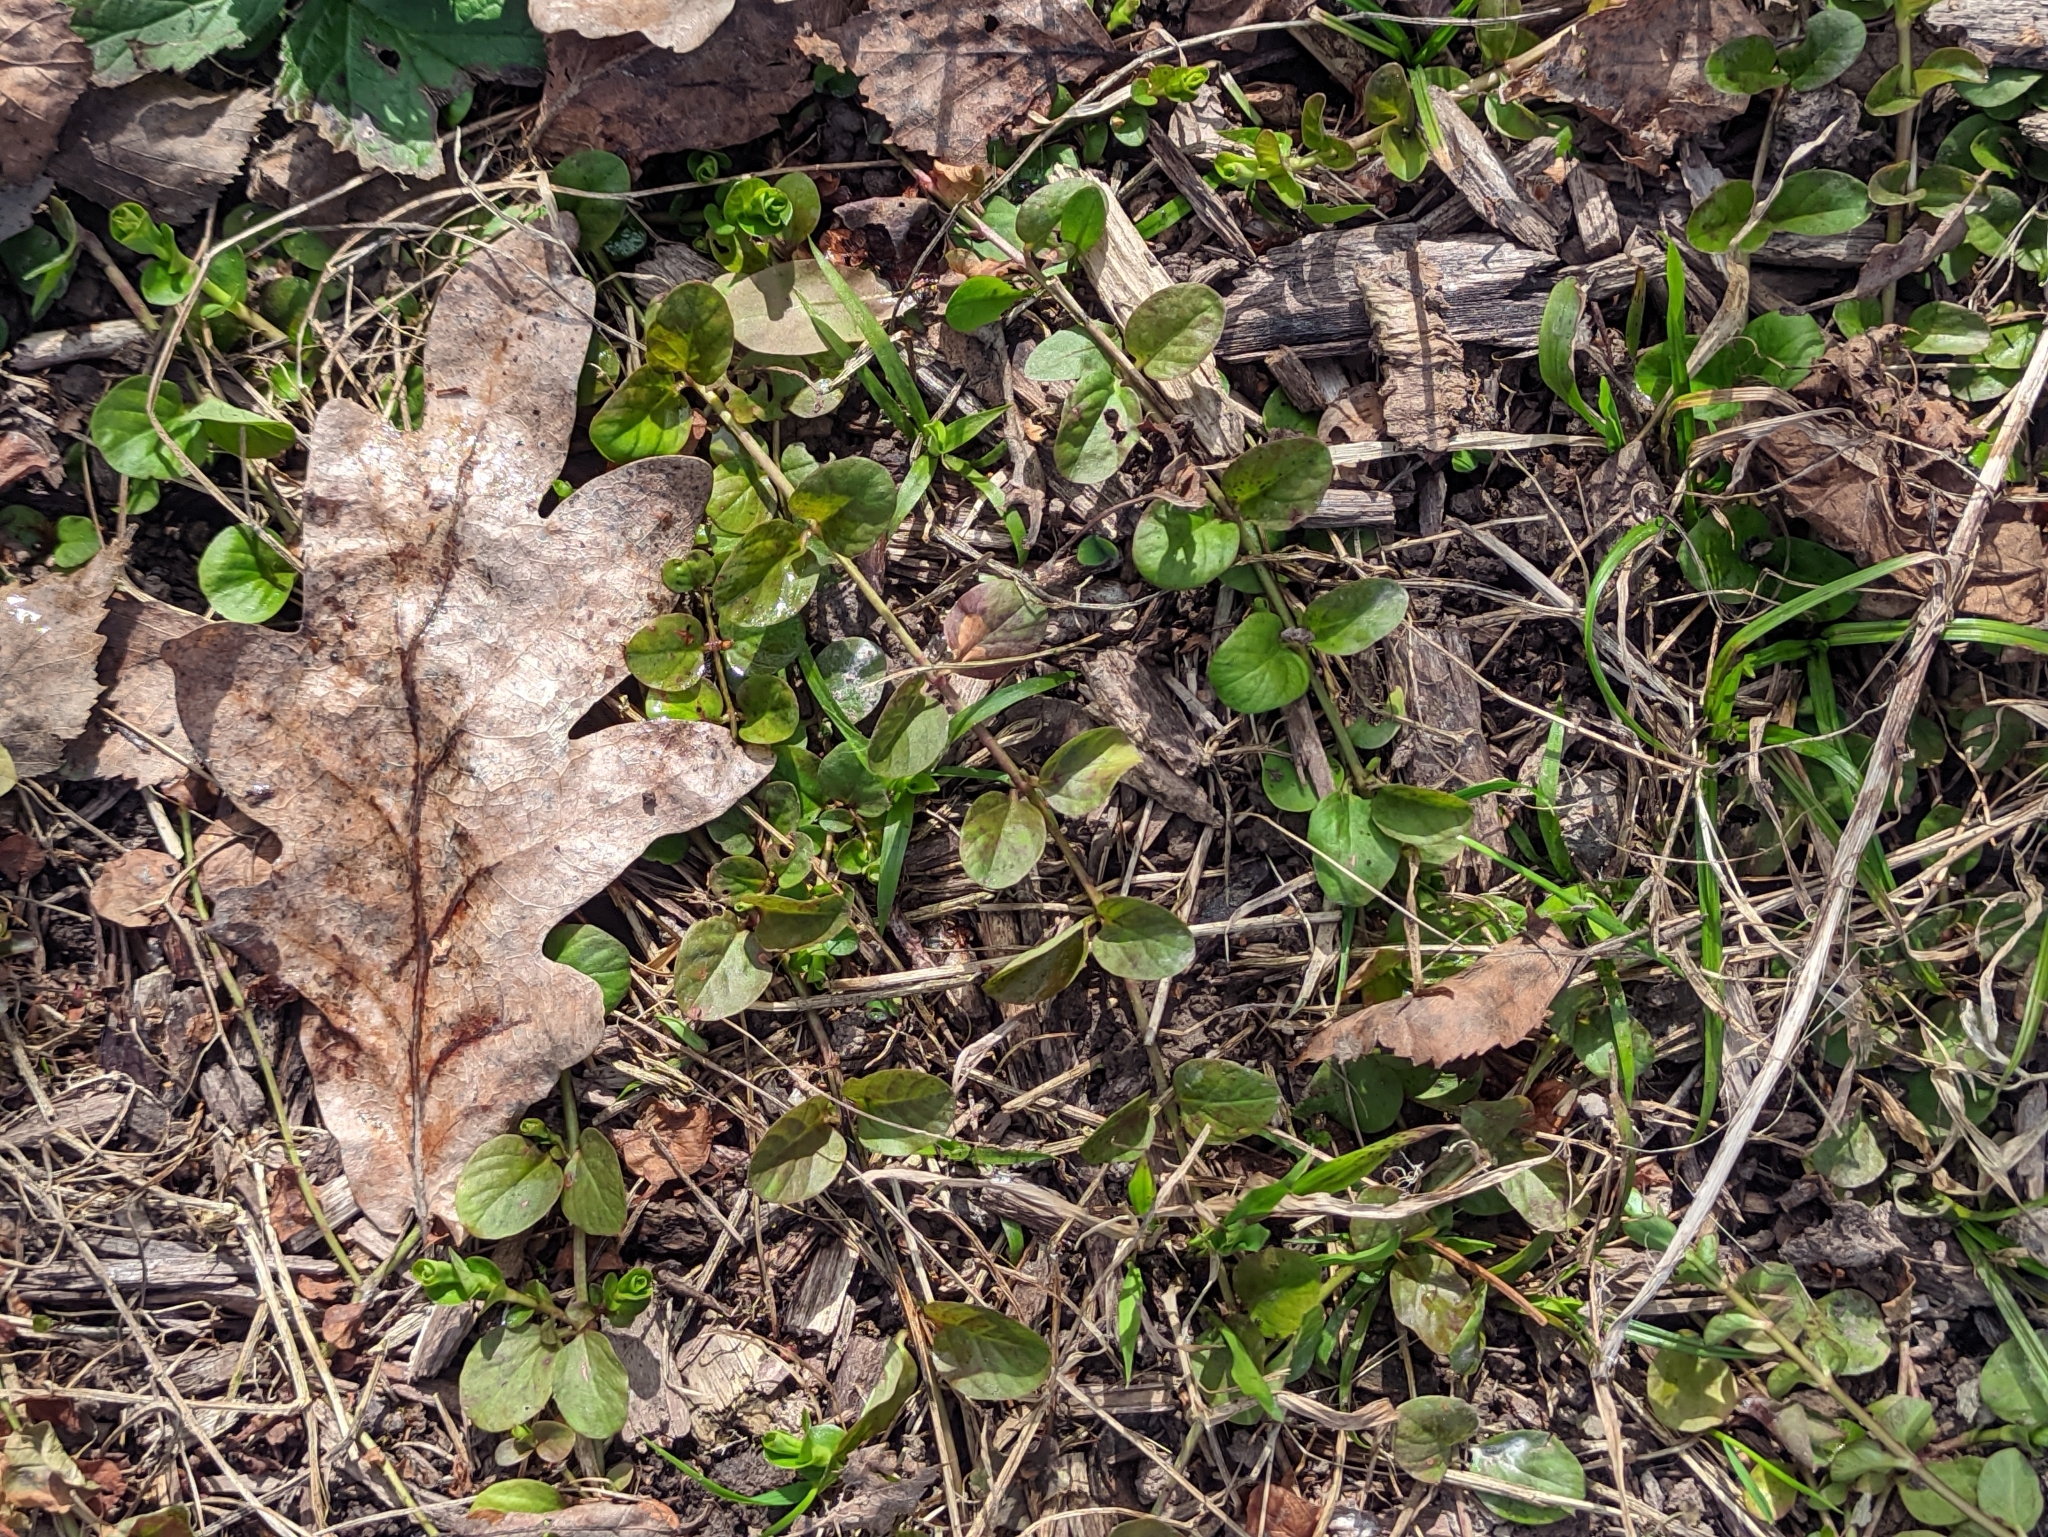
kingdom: Plantae
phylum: Tracheophyta
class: Magnoliopsida
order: Ericales
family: Primulaceae
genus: Lysimachia
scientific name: Lysimachia nummularia
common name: Moneywort
